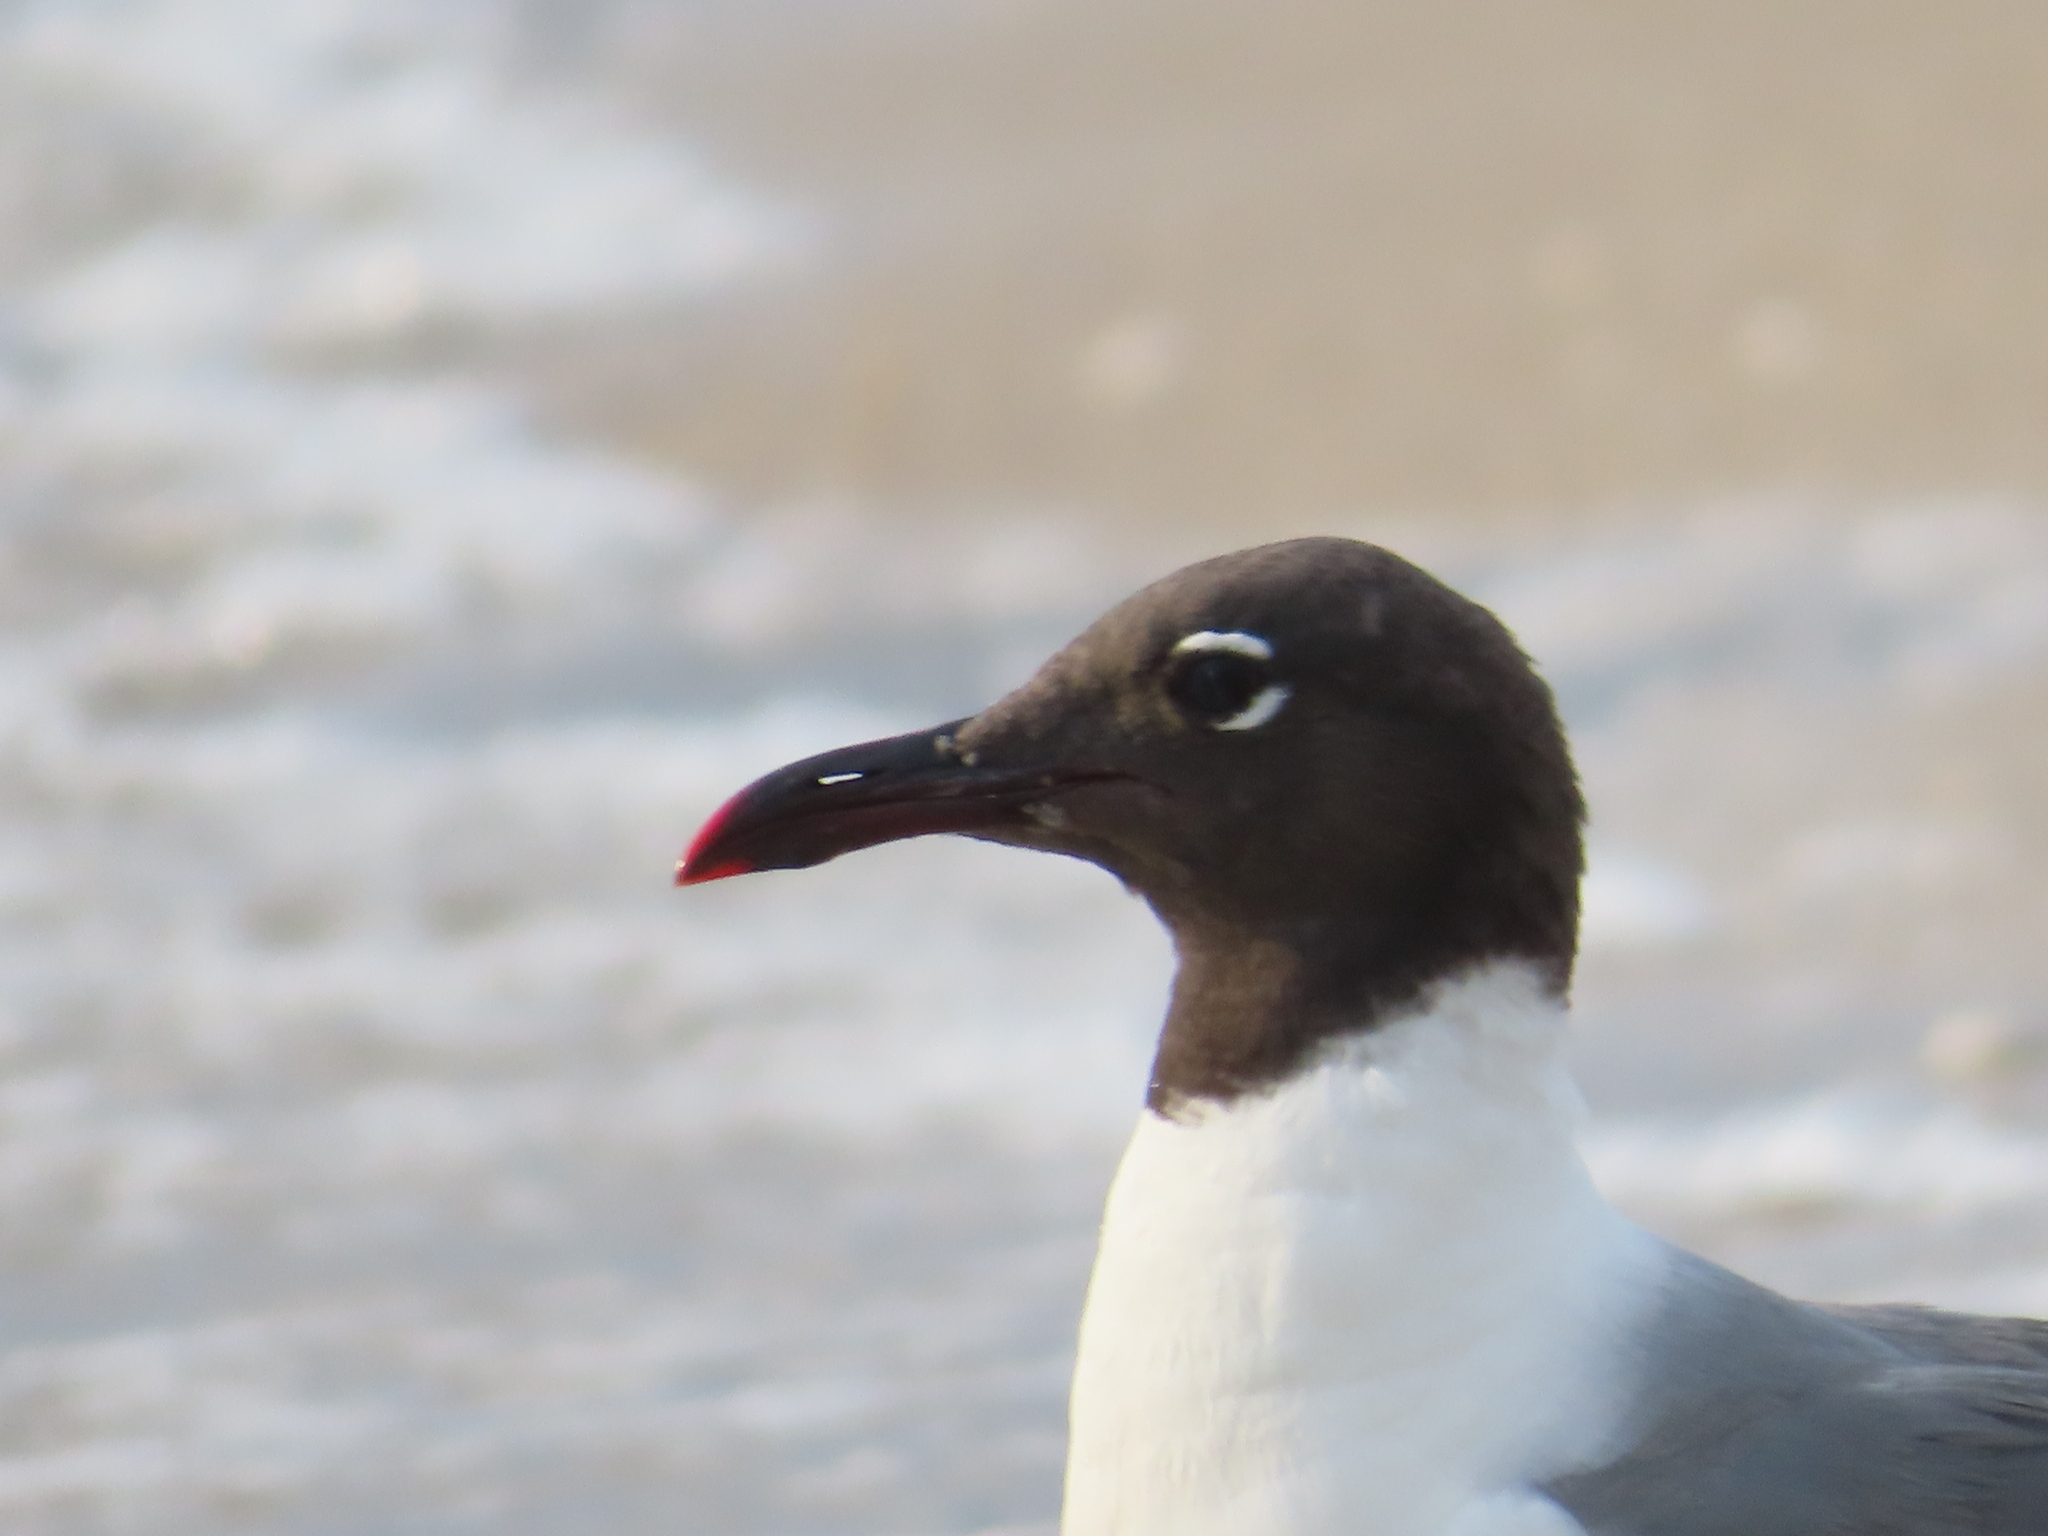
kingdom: Animalia
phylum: Chordata
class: Aves
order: Charadriiformes
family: Laridae
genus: Leucophaeus
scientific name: Leucophaeus atricilla
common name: Laughing gull
